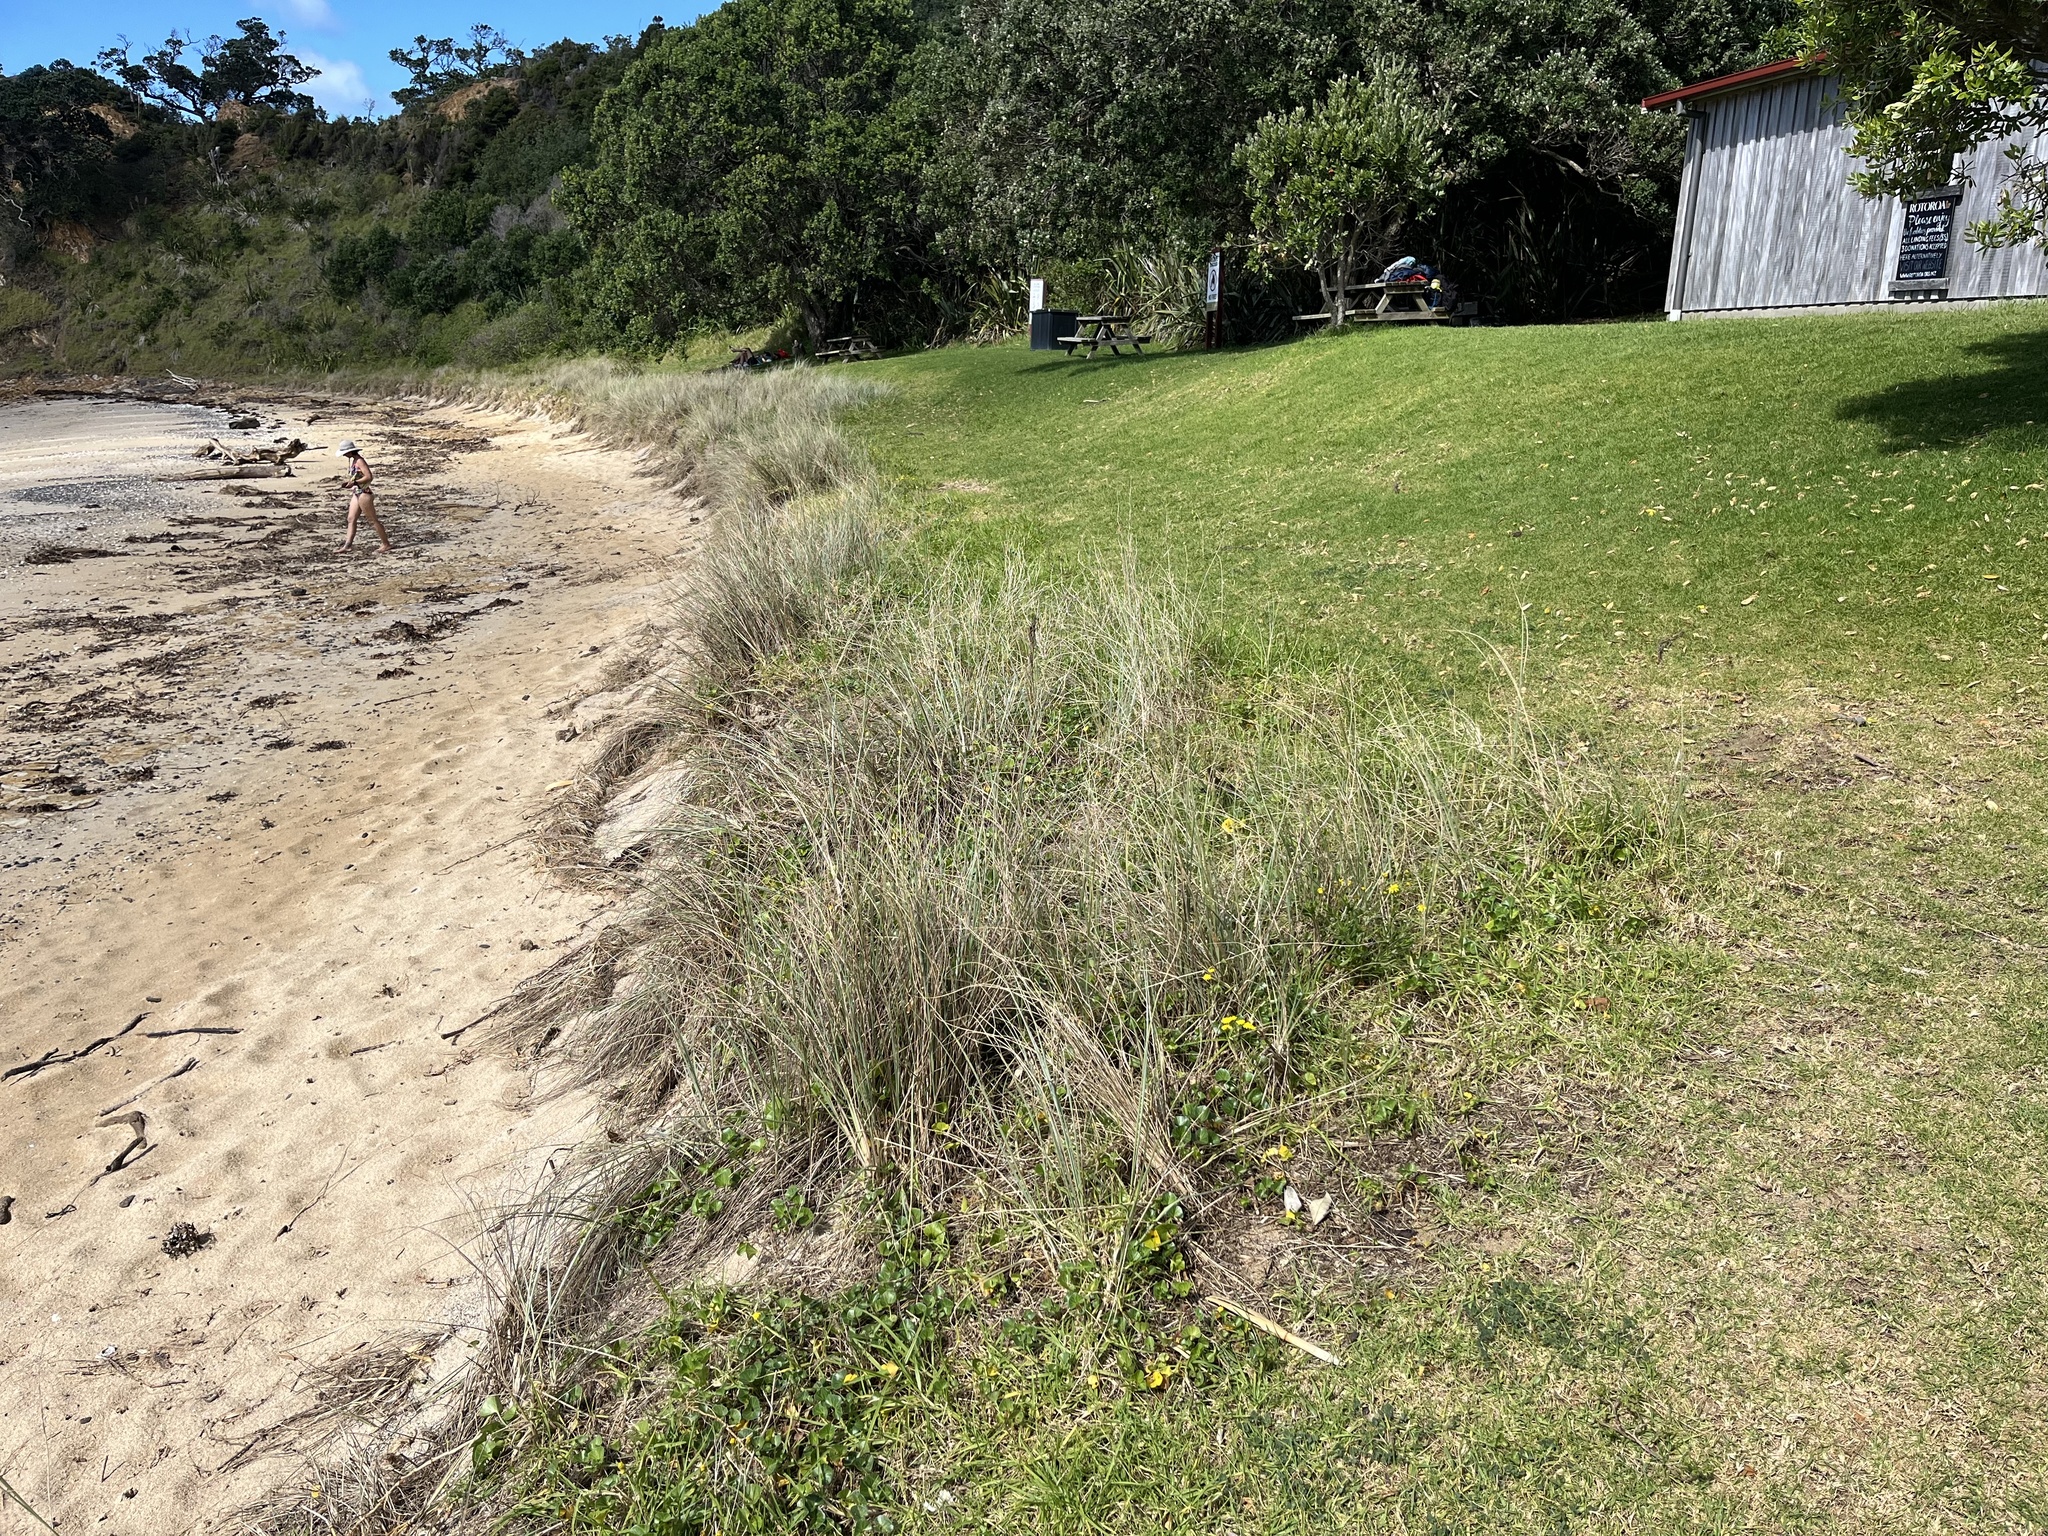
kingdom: Plantae
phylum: Tracheophyta
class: Liliopsida
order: Poales
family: Poaceae
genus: Spinifex
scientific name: Spinifex sericeus
